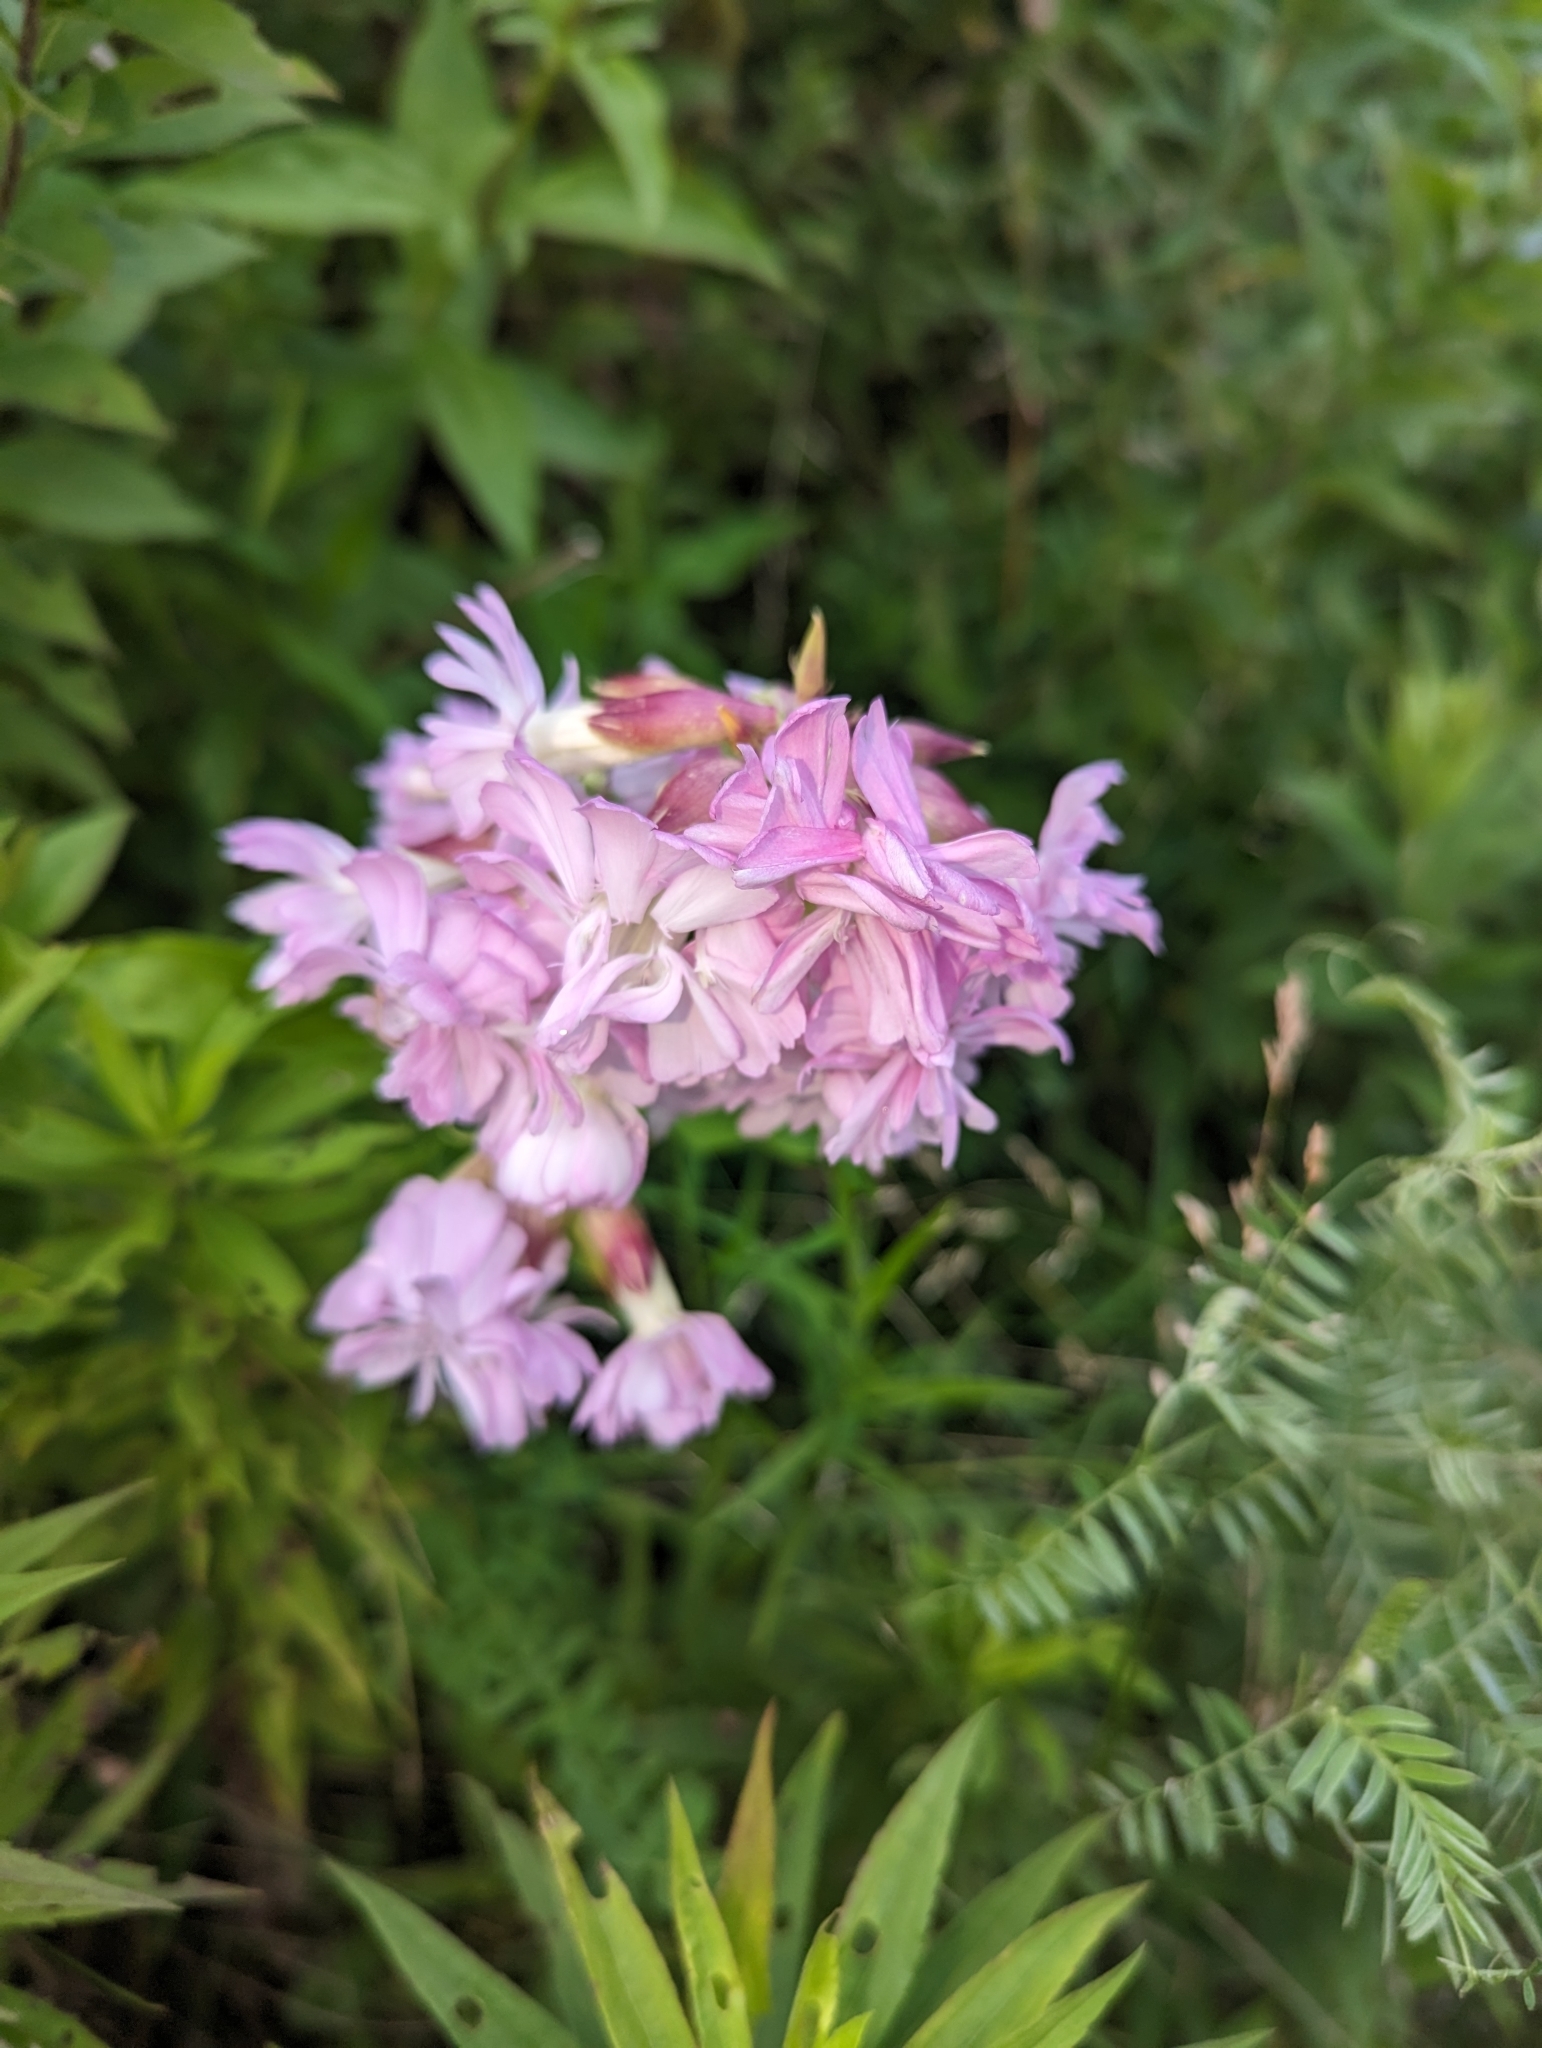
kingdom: Plantae
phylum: Tracheophyta
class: Magnoliopsida
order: Caryophyllales
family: Caryophyllaceae
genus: Saponaria
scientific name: Saponaria officinalis
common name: Soapwort
